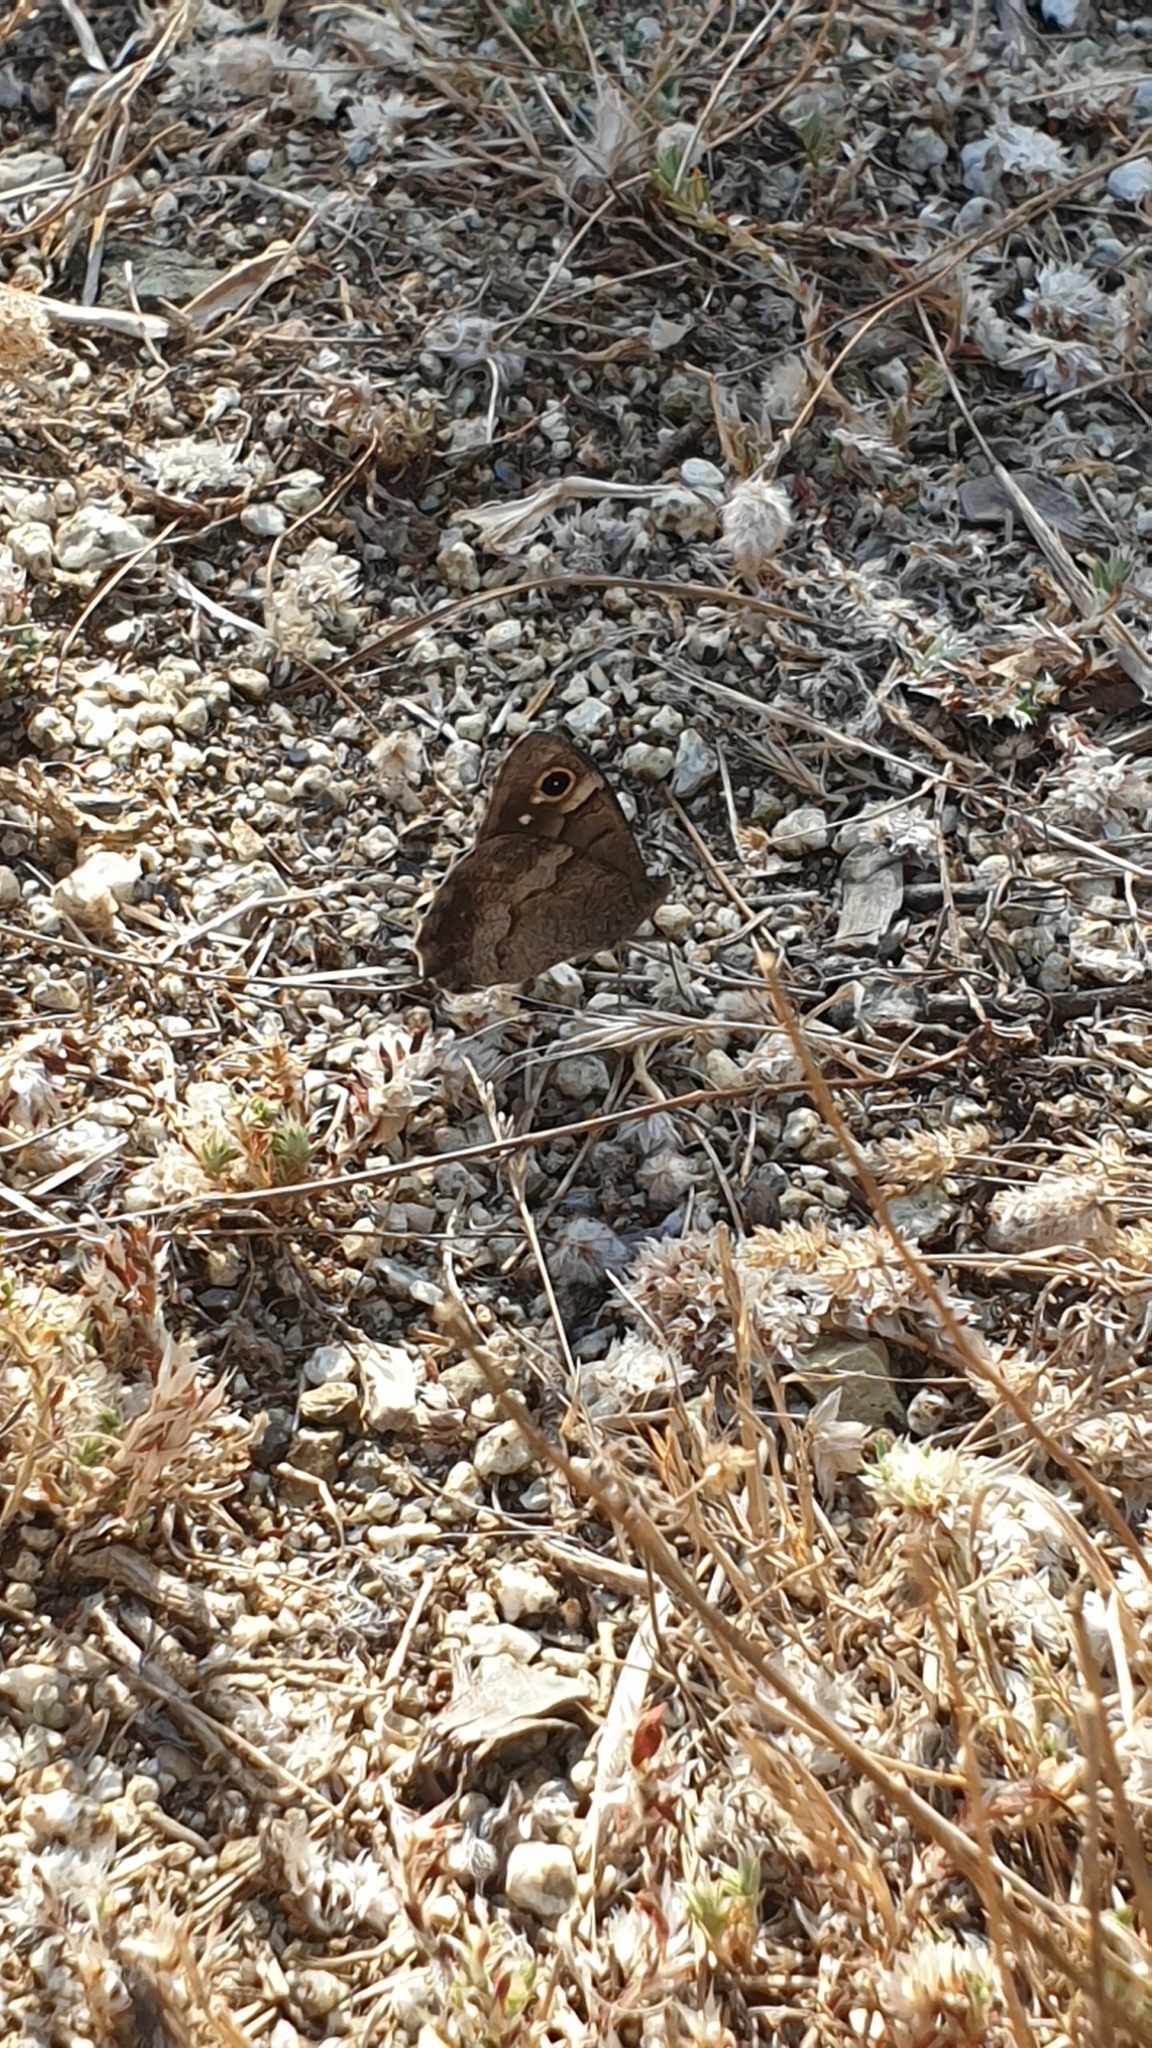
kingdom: Animalia
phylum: Arthropoda
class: Insecta
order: Lepidoptera
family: Nymphalidae
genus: Hipparchia
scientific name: Hipparchia statilinus
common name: Tree grayling
